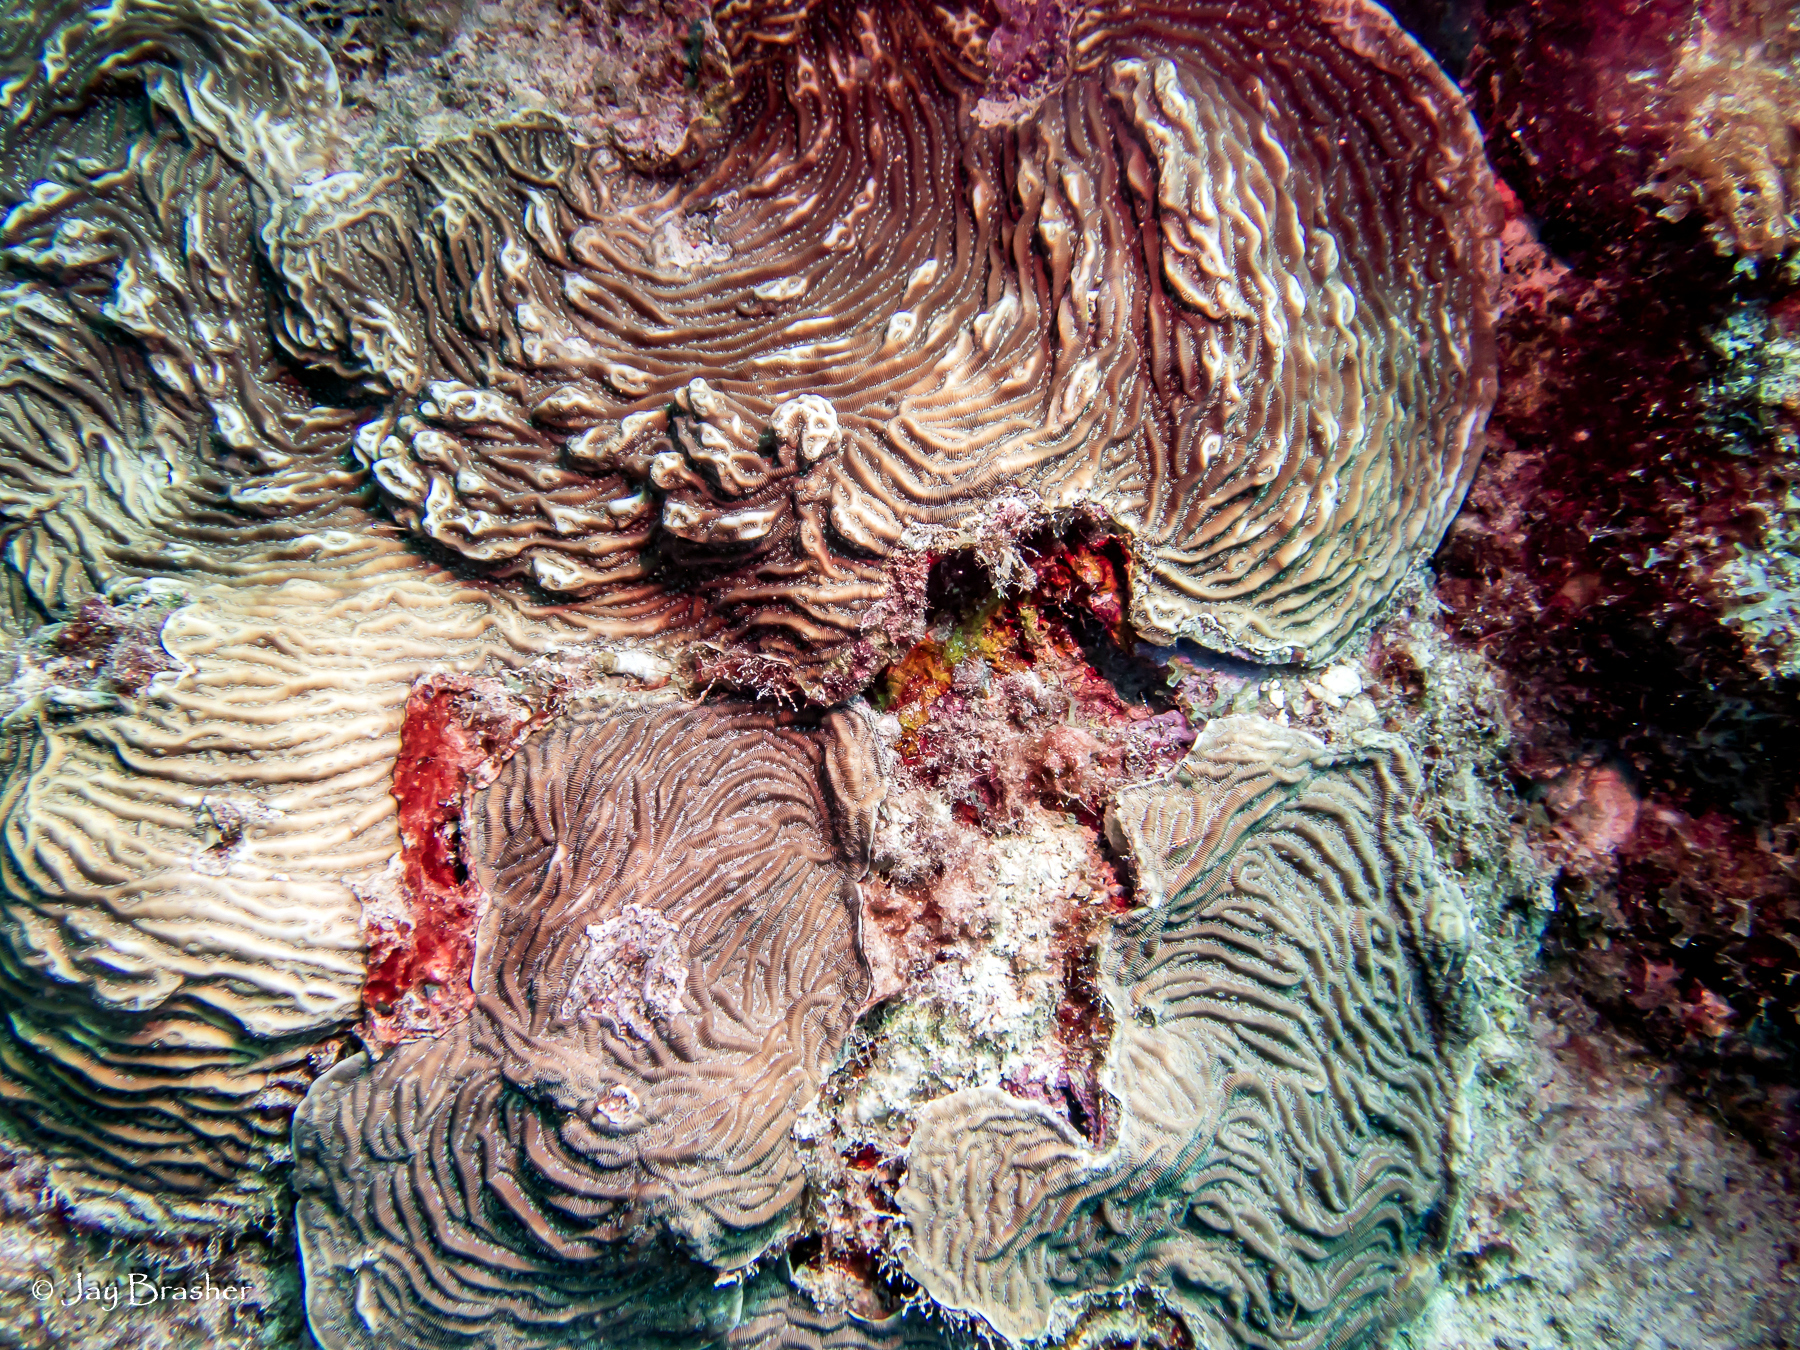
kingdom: Animalia
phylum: Cnidaria
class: Anthozoa
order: Scleractinia
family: Agariciidae
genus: Agaricia
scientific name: Agaricia lamarcki
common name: Lamarck's sheet coral
